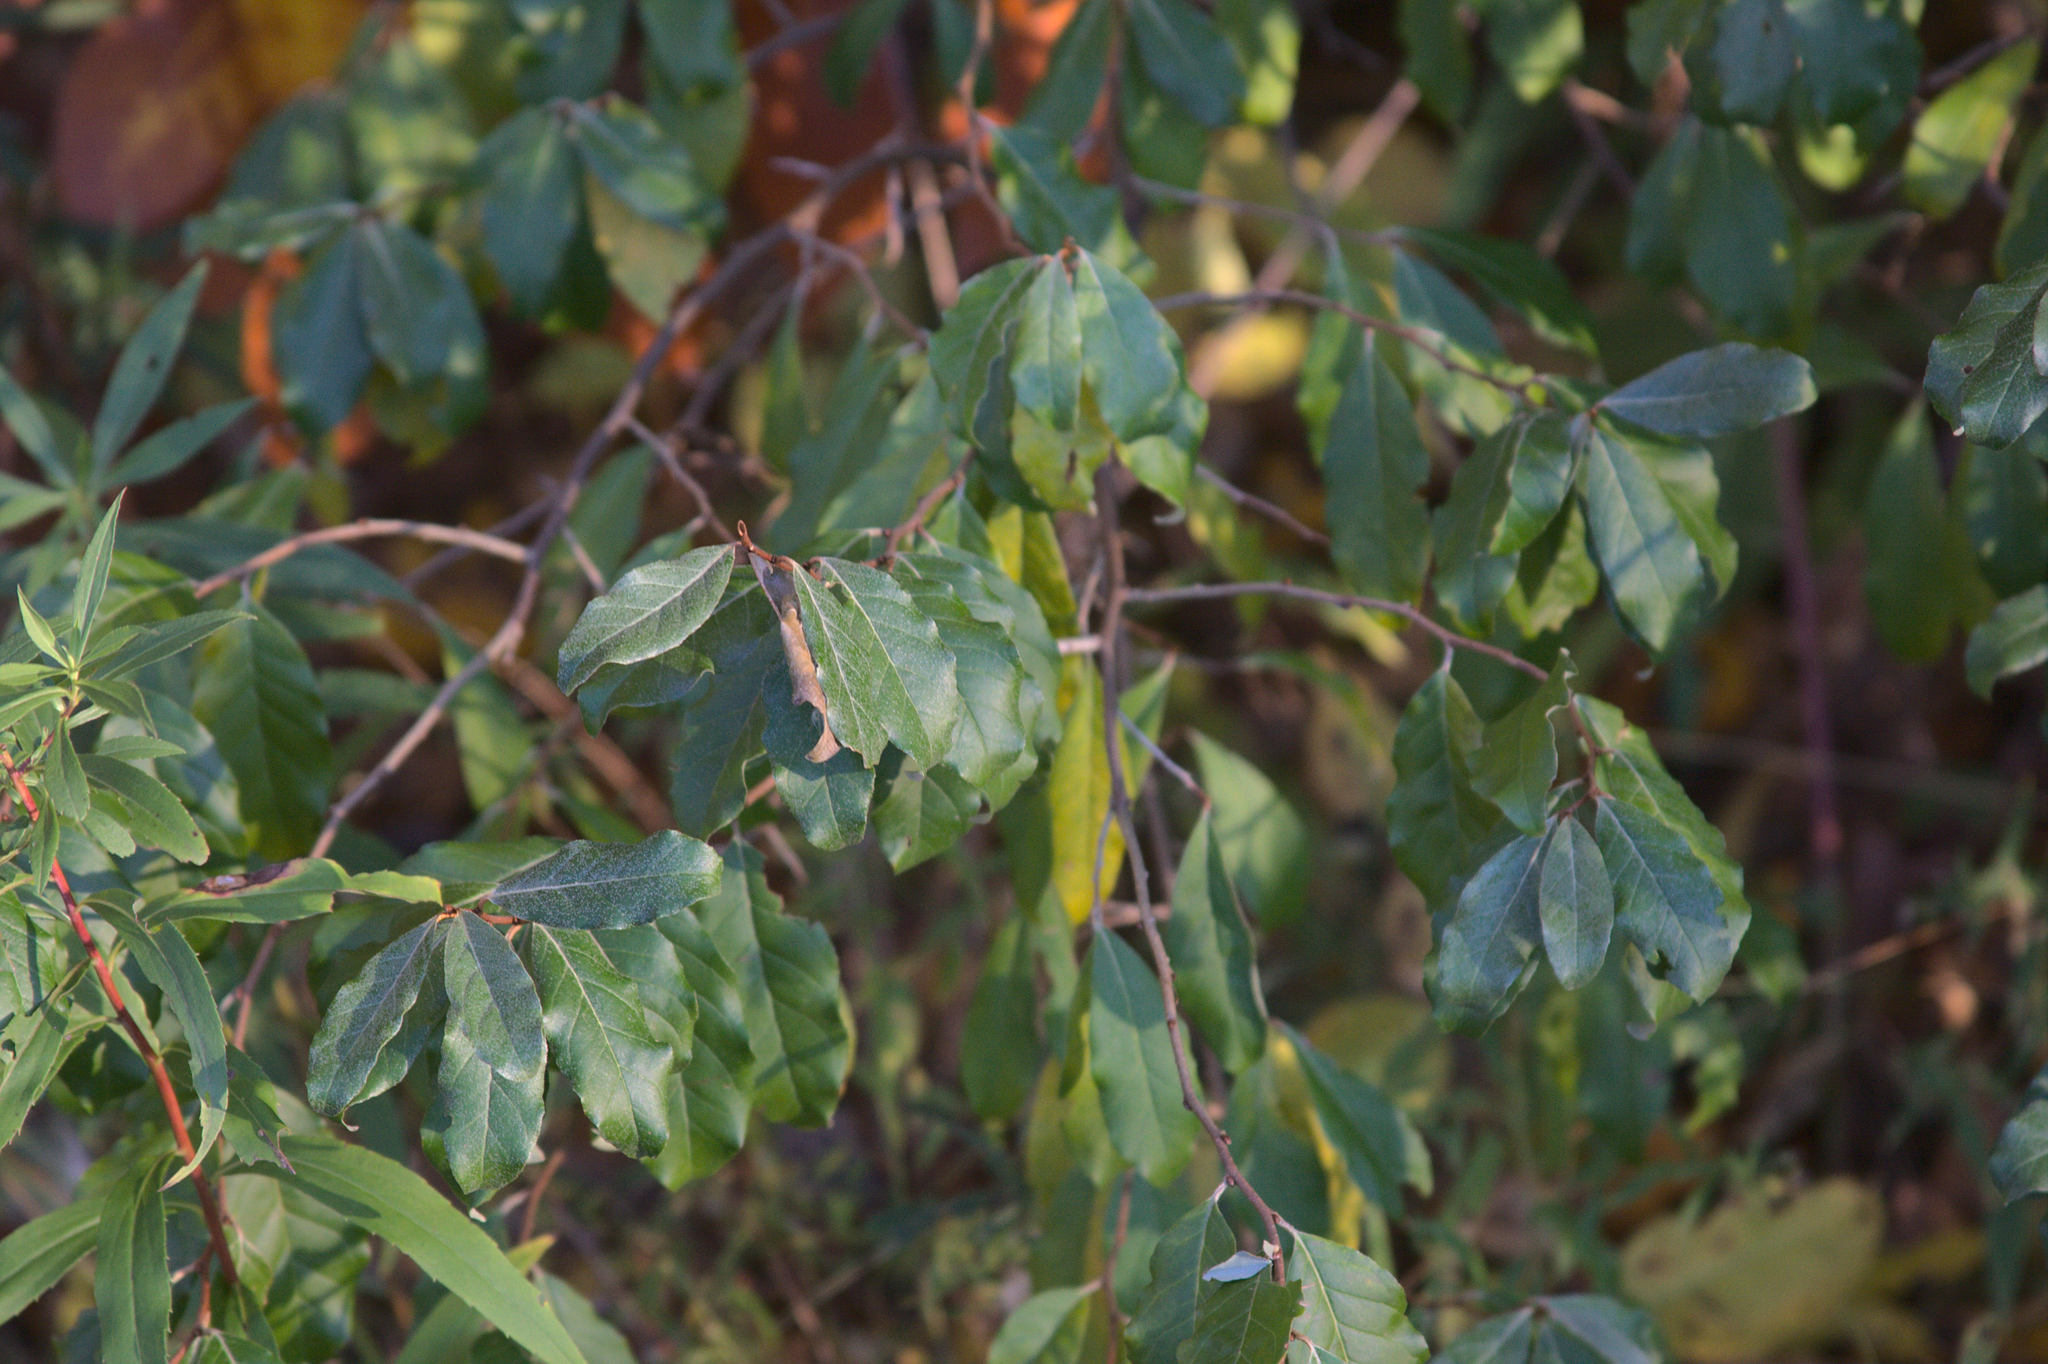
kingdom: Plantae
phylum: Tracheophyta
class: Magnoliopsida
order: Rosales
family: Elaeagnaceae
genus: Elaeagnus
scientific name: Elaeagnus umbellata
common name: Autumn olive
